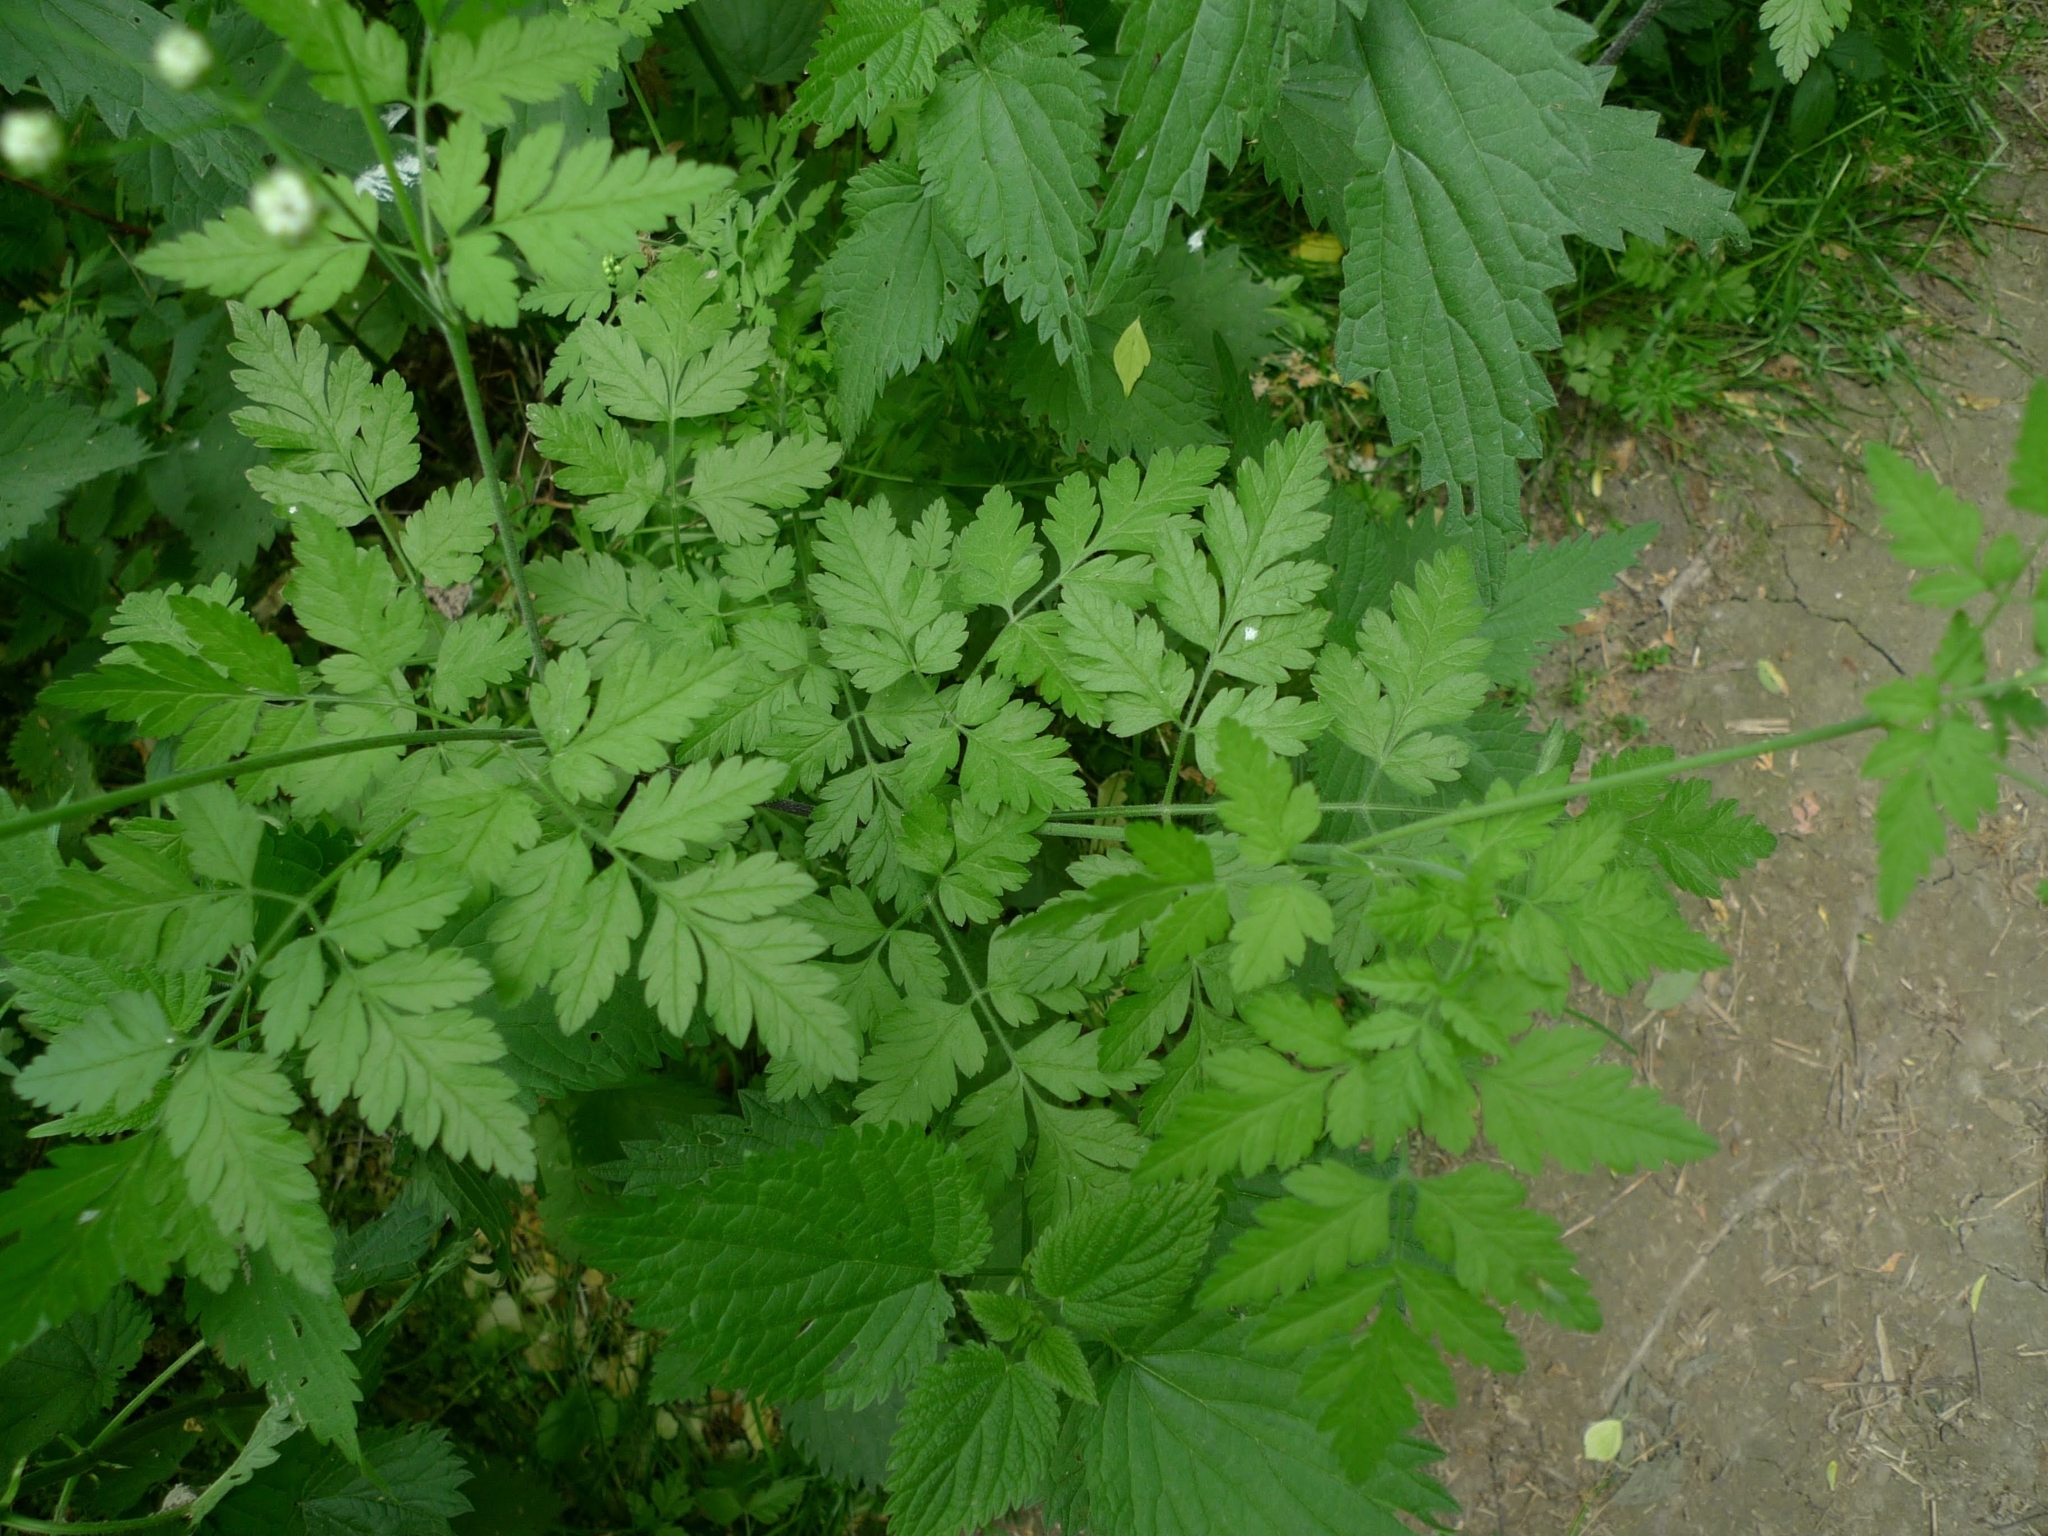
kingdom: Plantae
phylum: Tracheophyta
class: Magnoliopsida
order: Apiales
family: Apiaceae
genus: Chaerophyllum
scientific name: Chaerophyllum temulum
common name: Rough chervil
